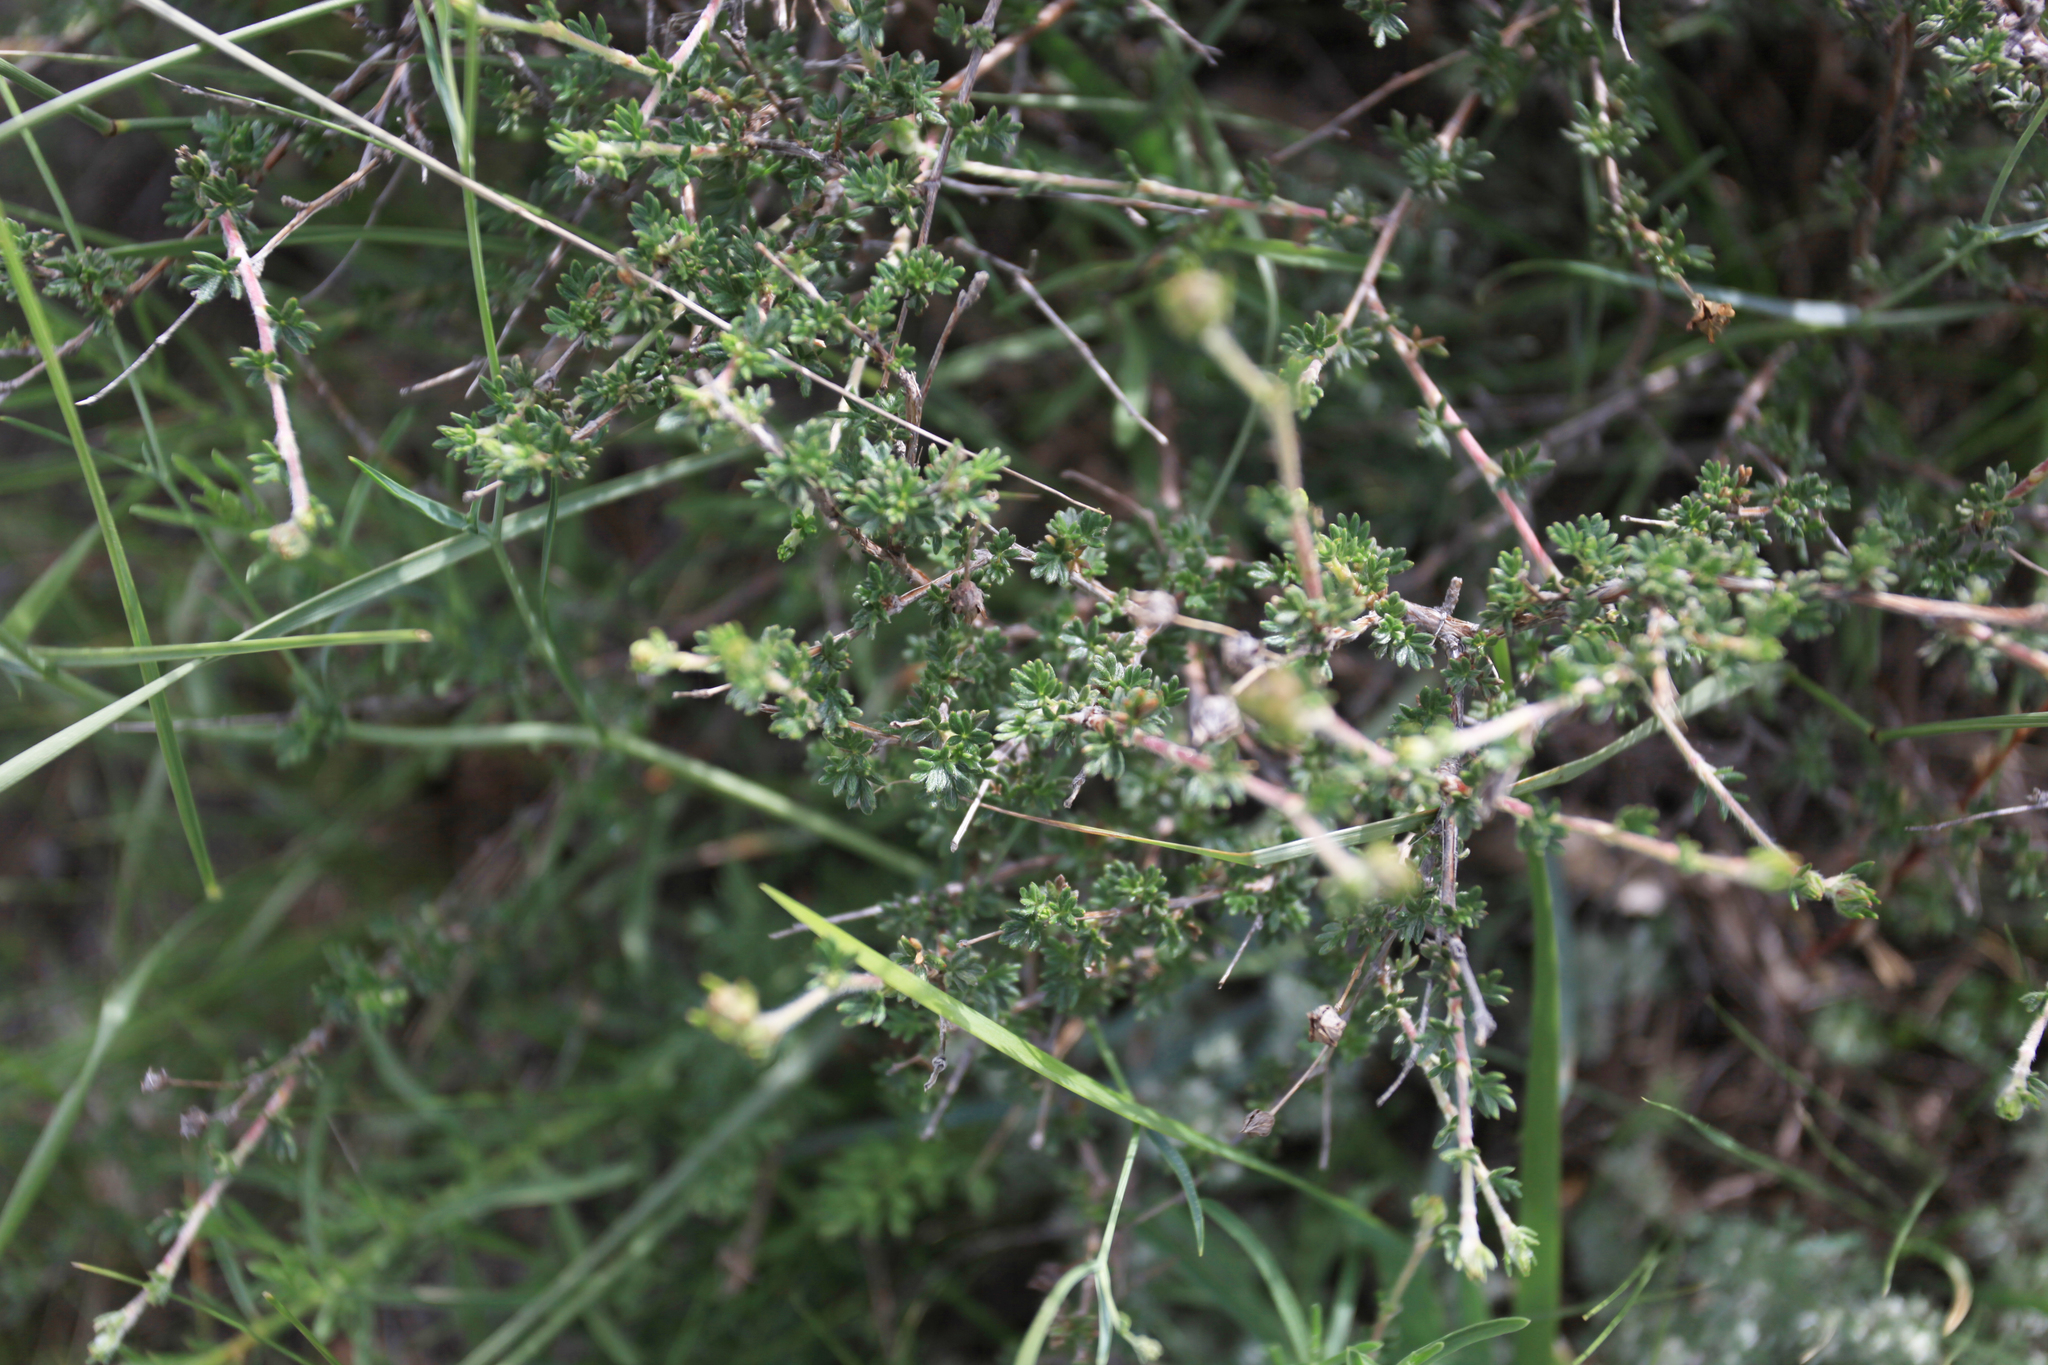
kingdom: Plantae
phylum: Tracheophyta
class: Magnoliopsida
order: Rosales
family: Rosaceae
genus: Dasiphora
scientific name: Dasiphora fruticosa
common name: Shrubby cinquefoil
